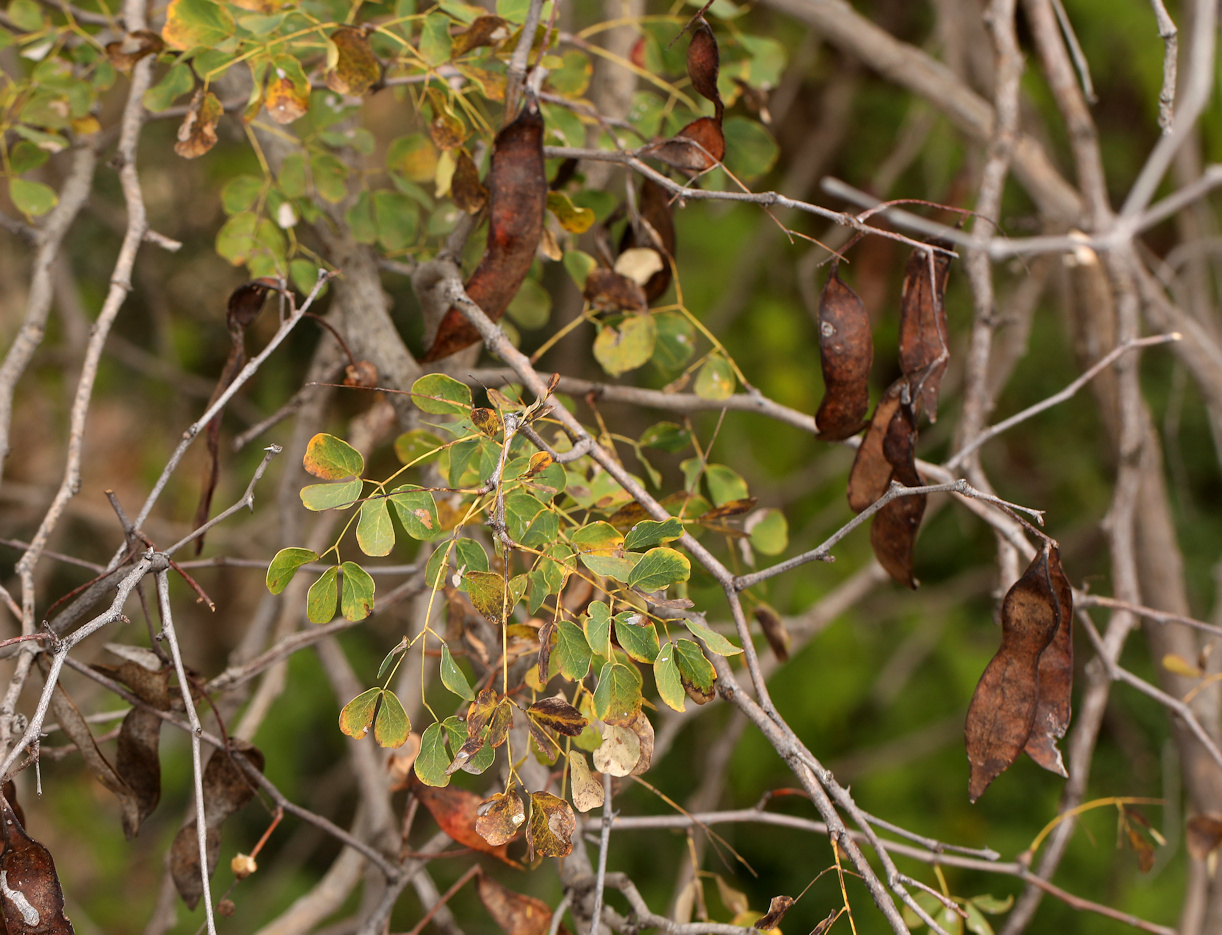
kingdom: Plantae
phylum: Tracheophyta
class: Magnoliopsida
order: Fabales
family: Fabaceae
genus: Albizia
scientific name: Albizia versicolor
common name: Poisonpod
